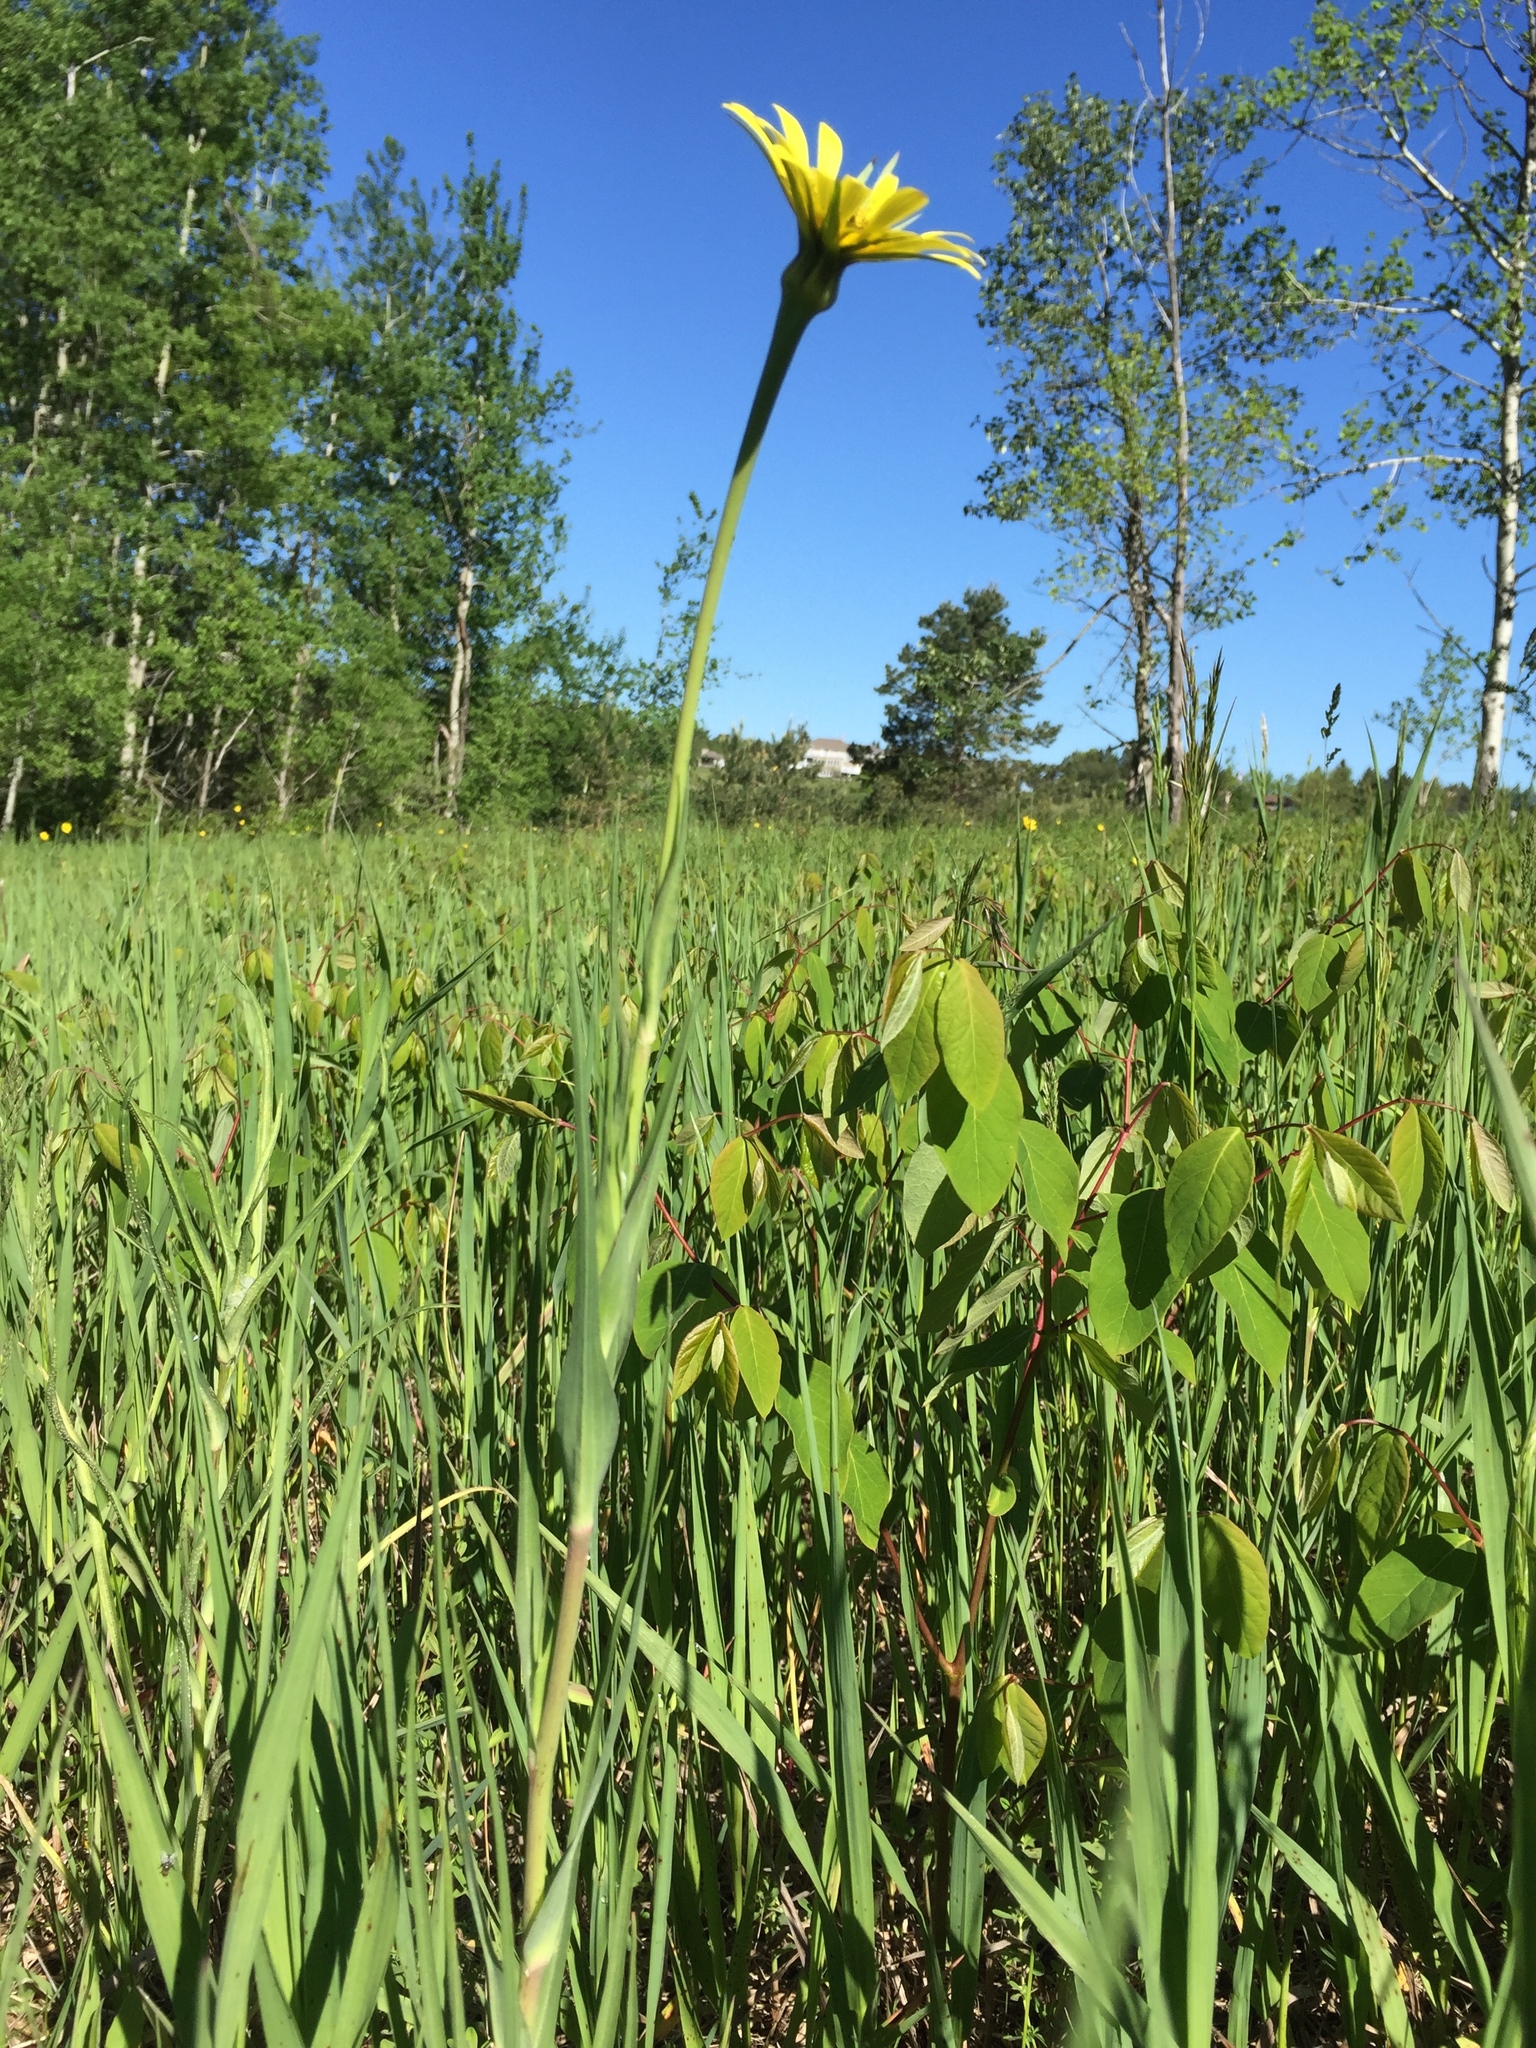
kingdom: Plantae
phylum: Tracheophyta
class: Magnoliopsida
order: Asterales
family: Asteraceae
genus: Tragopogon
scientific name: Tragopogon pratensis
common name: Goat's-beard
